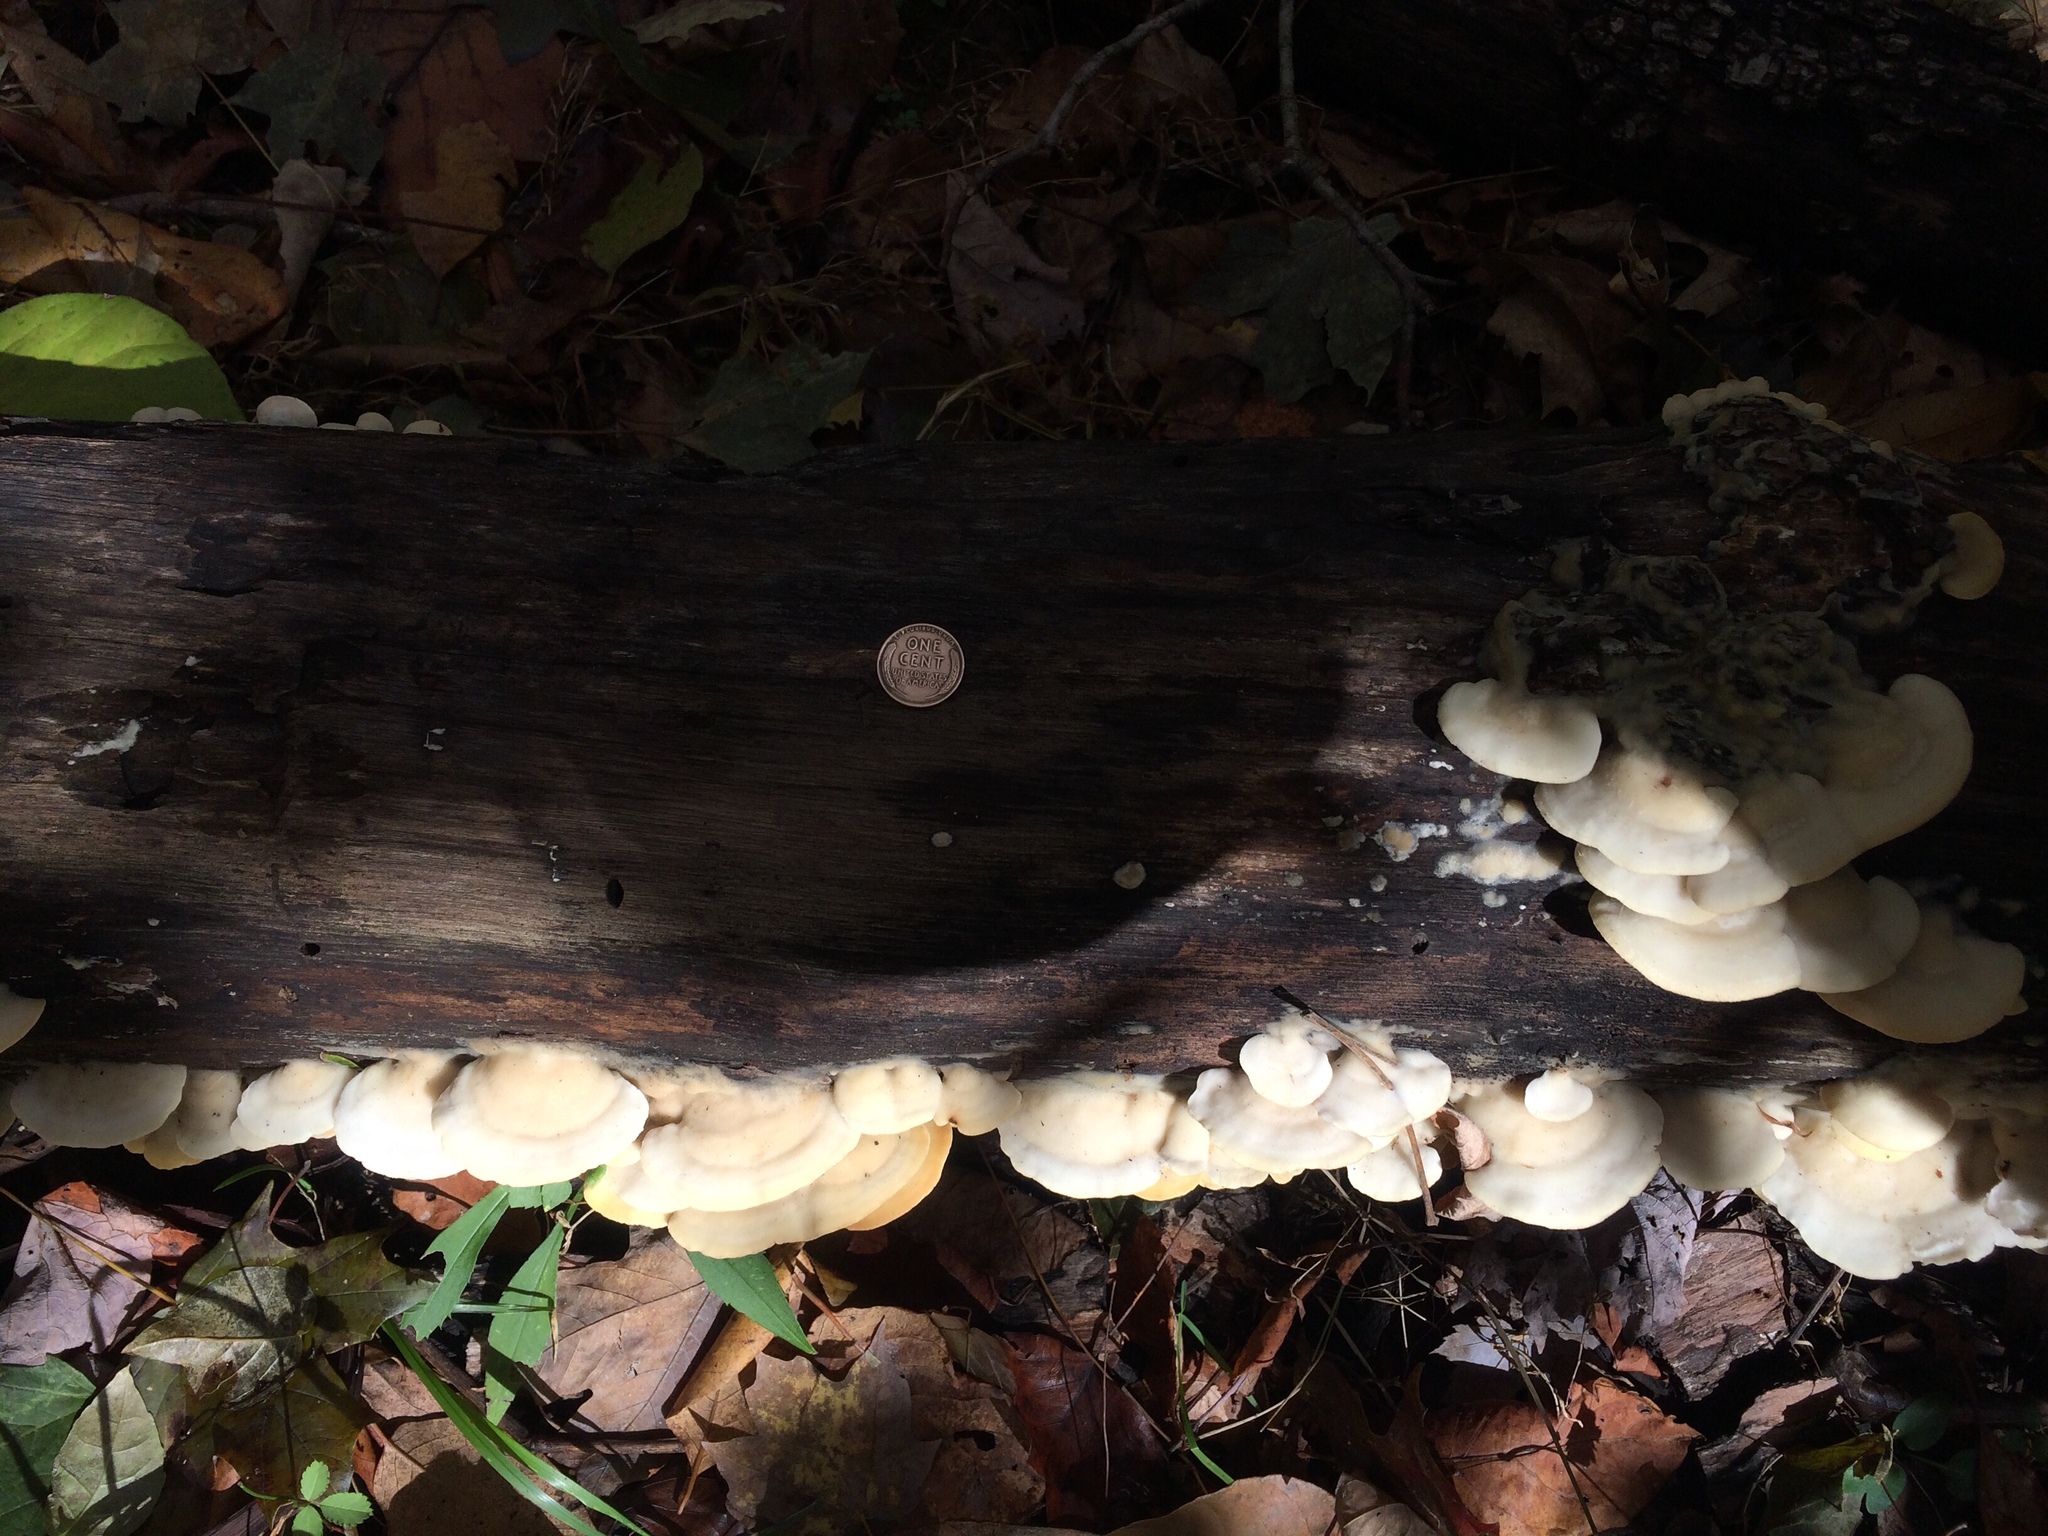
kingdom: Fungi
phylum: Basidiomycota
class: Agaricomycetes
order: Polyporales
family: Irpicaceae
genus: Vitreoporus
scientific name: Vitreoporus dichrous
